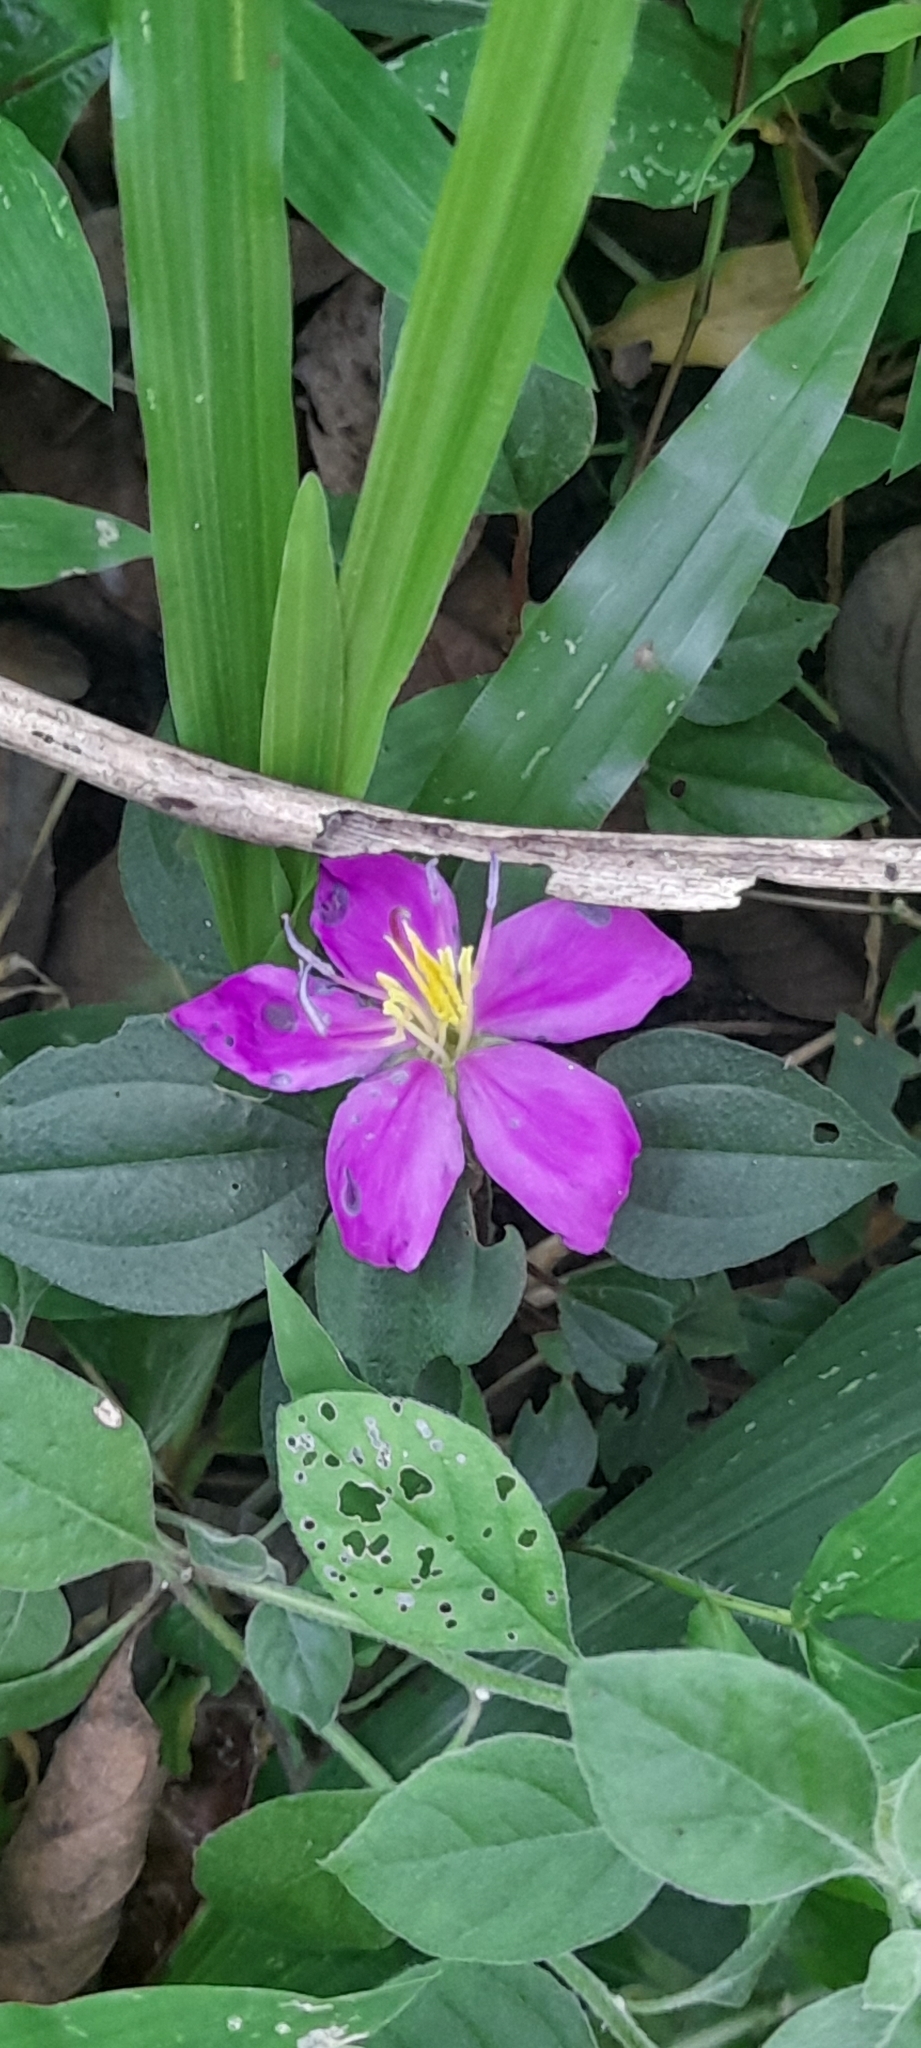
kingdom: Plantae
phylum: Tracheophyta
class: Magnoliopsida
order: Myrtales
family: Melastomataceae
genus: Heterotis
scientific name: Heterotis rotundifolia
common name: Pinklady
